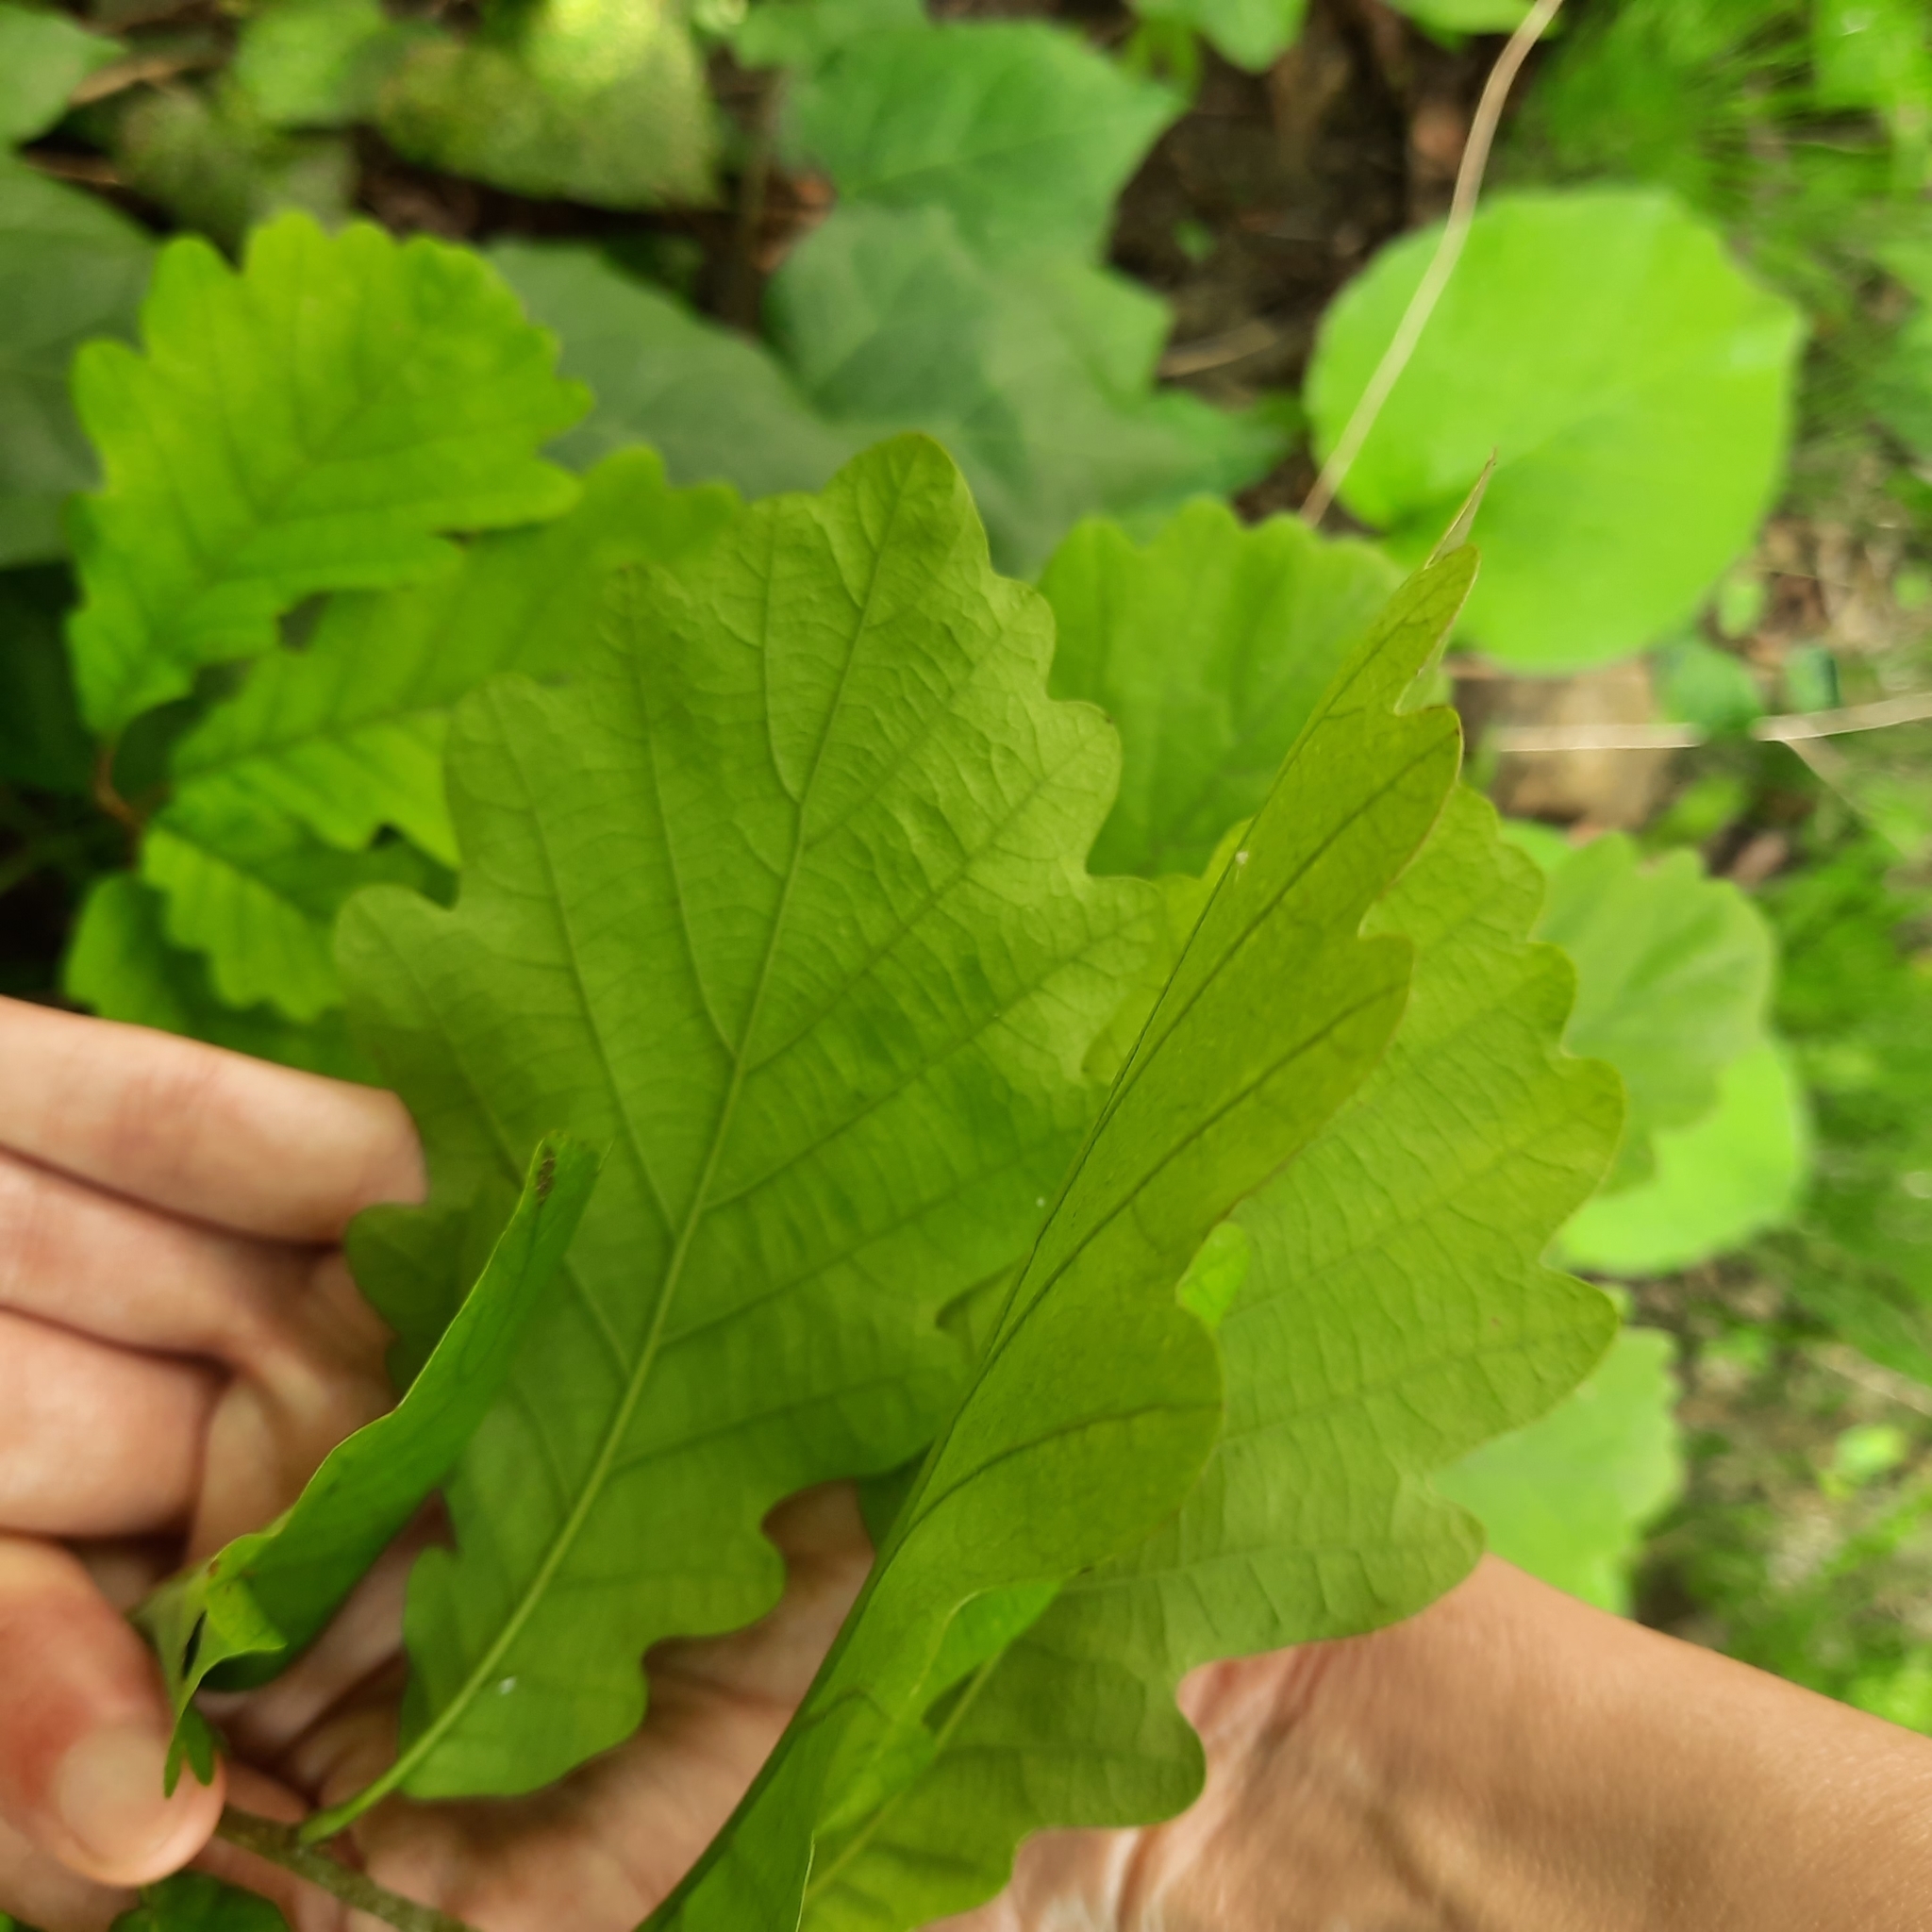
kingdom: Plantae
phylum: Tracheophyta
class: Magnoliopsida
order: Fagales
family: Fagaceae
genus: Quercus
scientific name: Quercus petraea
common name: Sessile oak
